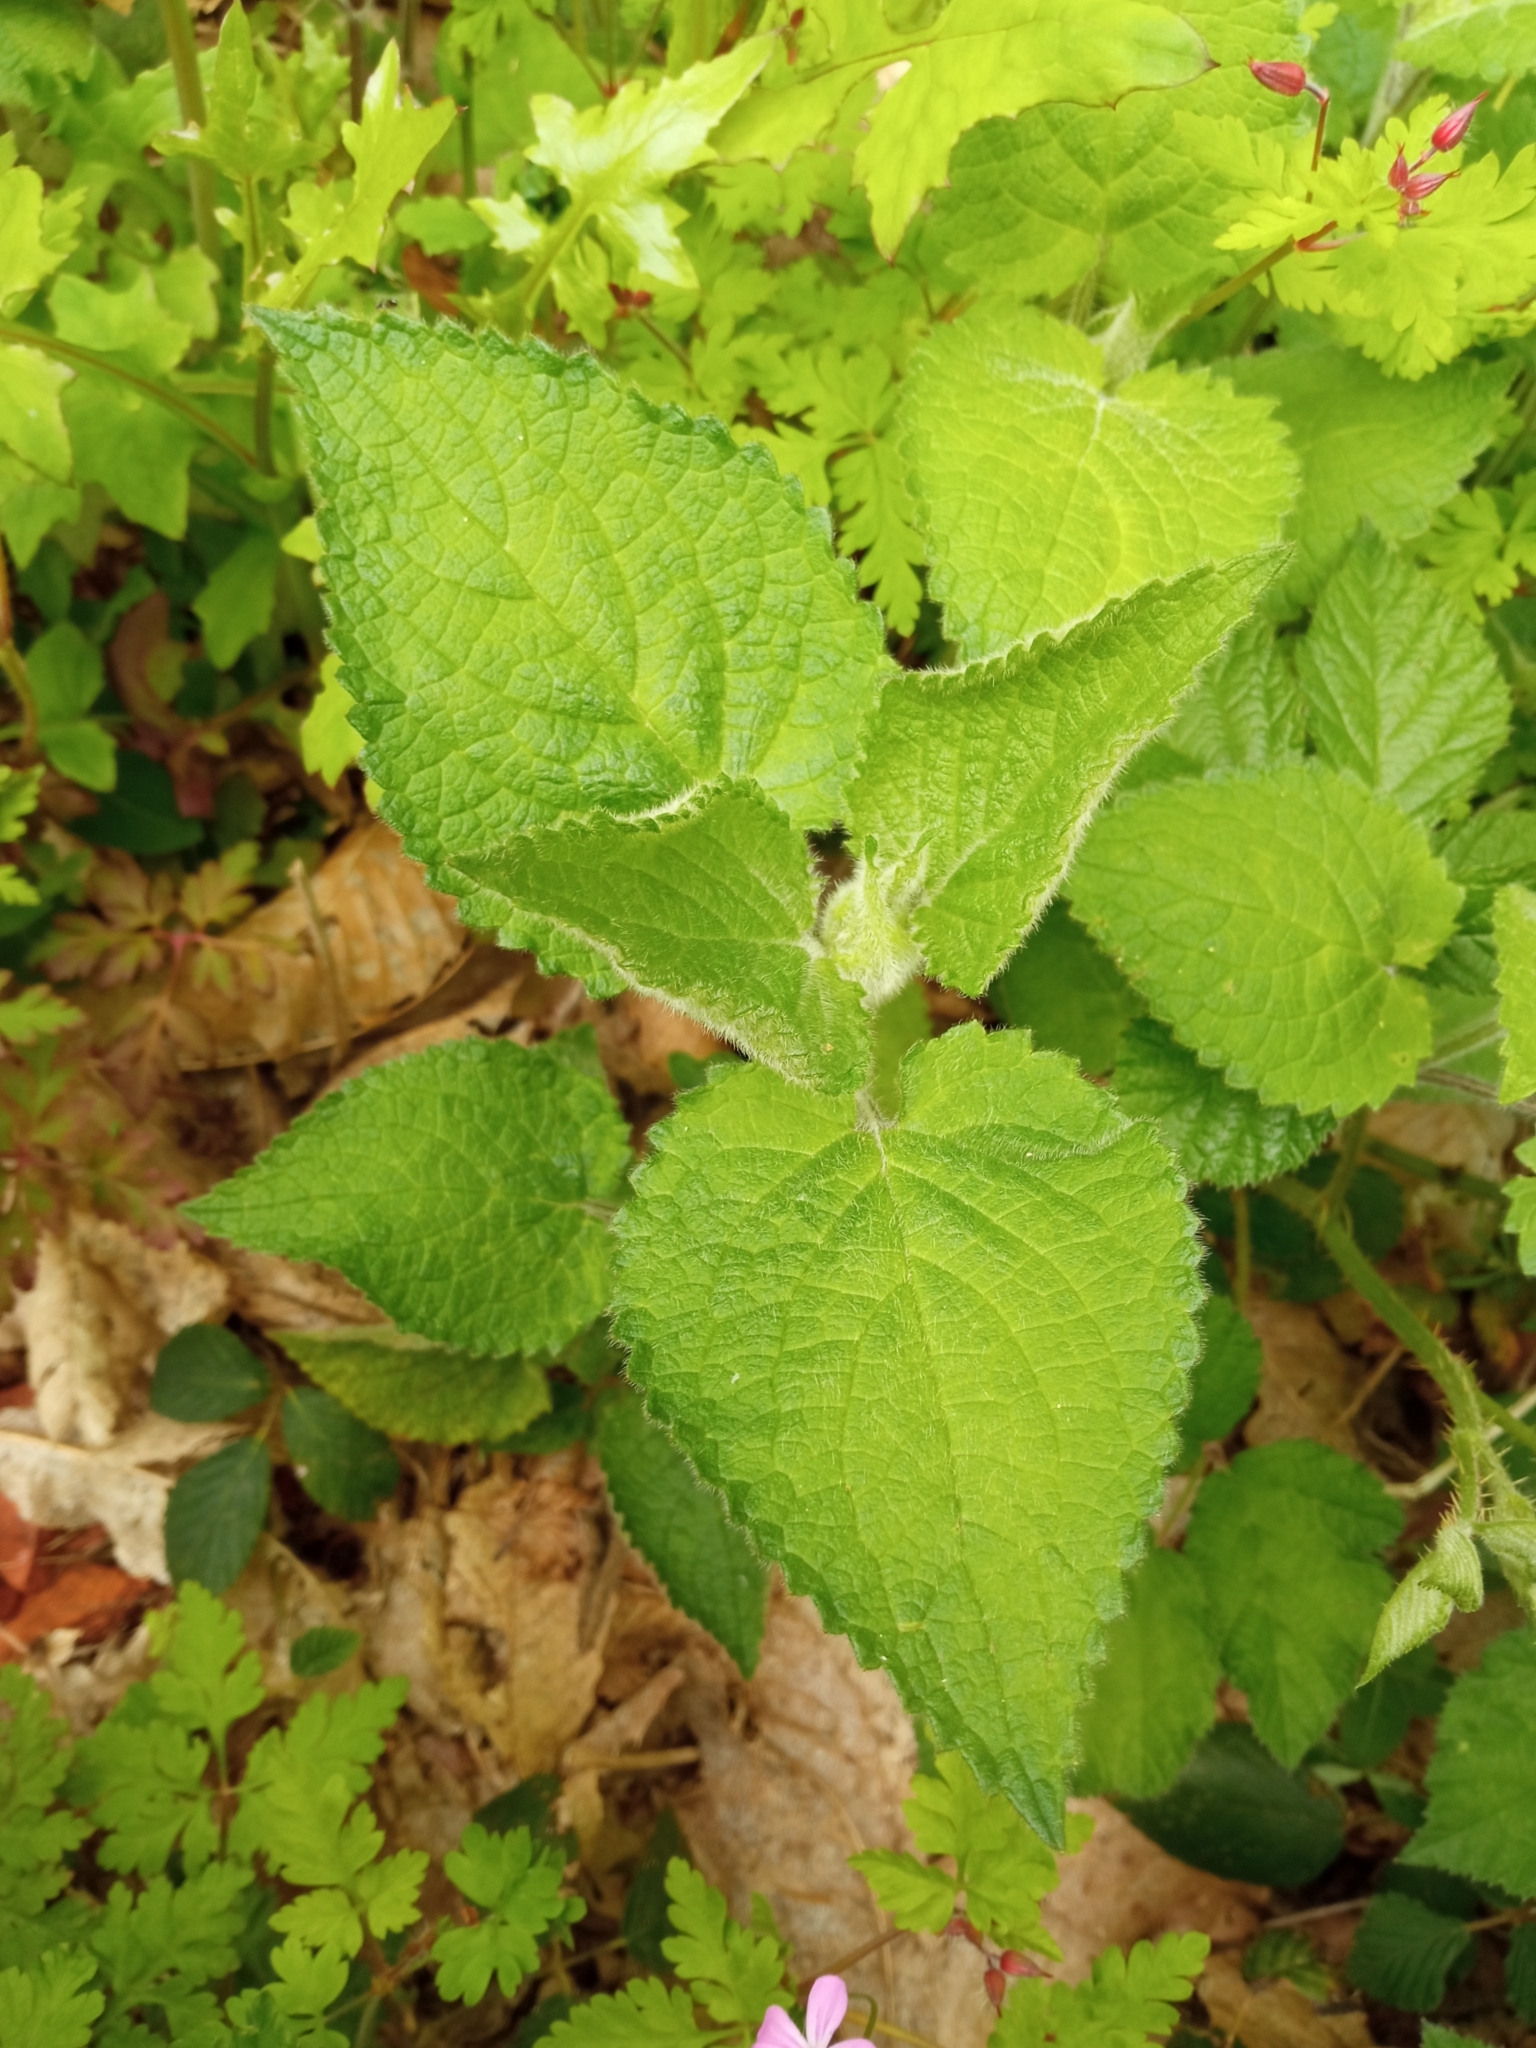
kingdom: Plantae
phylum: Tracheophyta
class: Magnoliopsida
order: Lamiales
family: Lamiaceae
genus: Stachys
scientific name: Stachys sylvatica
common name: Hedge woundwort
